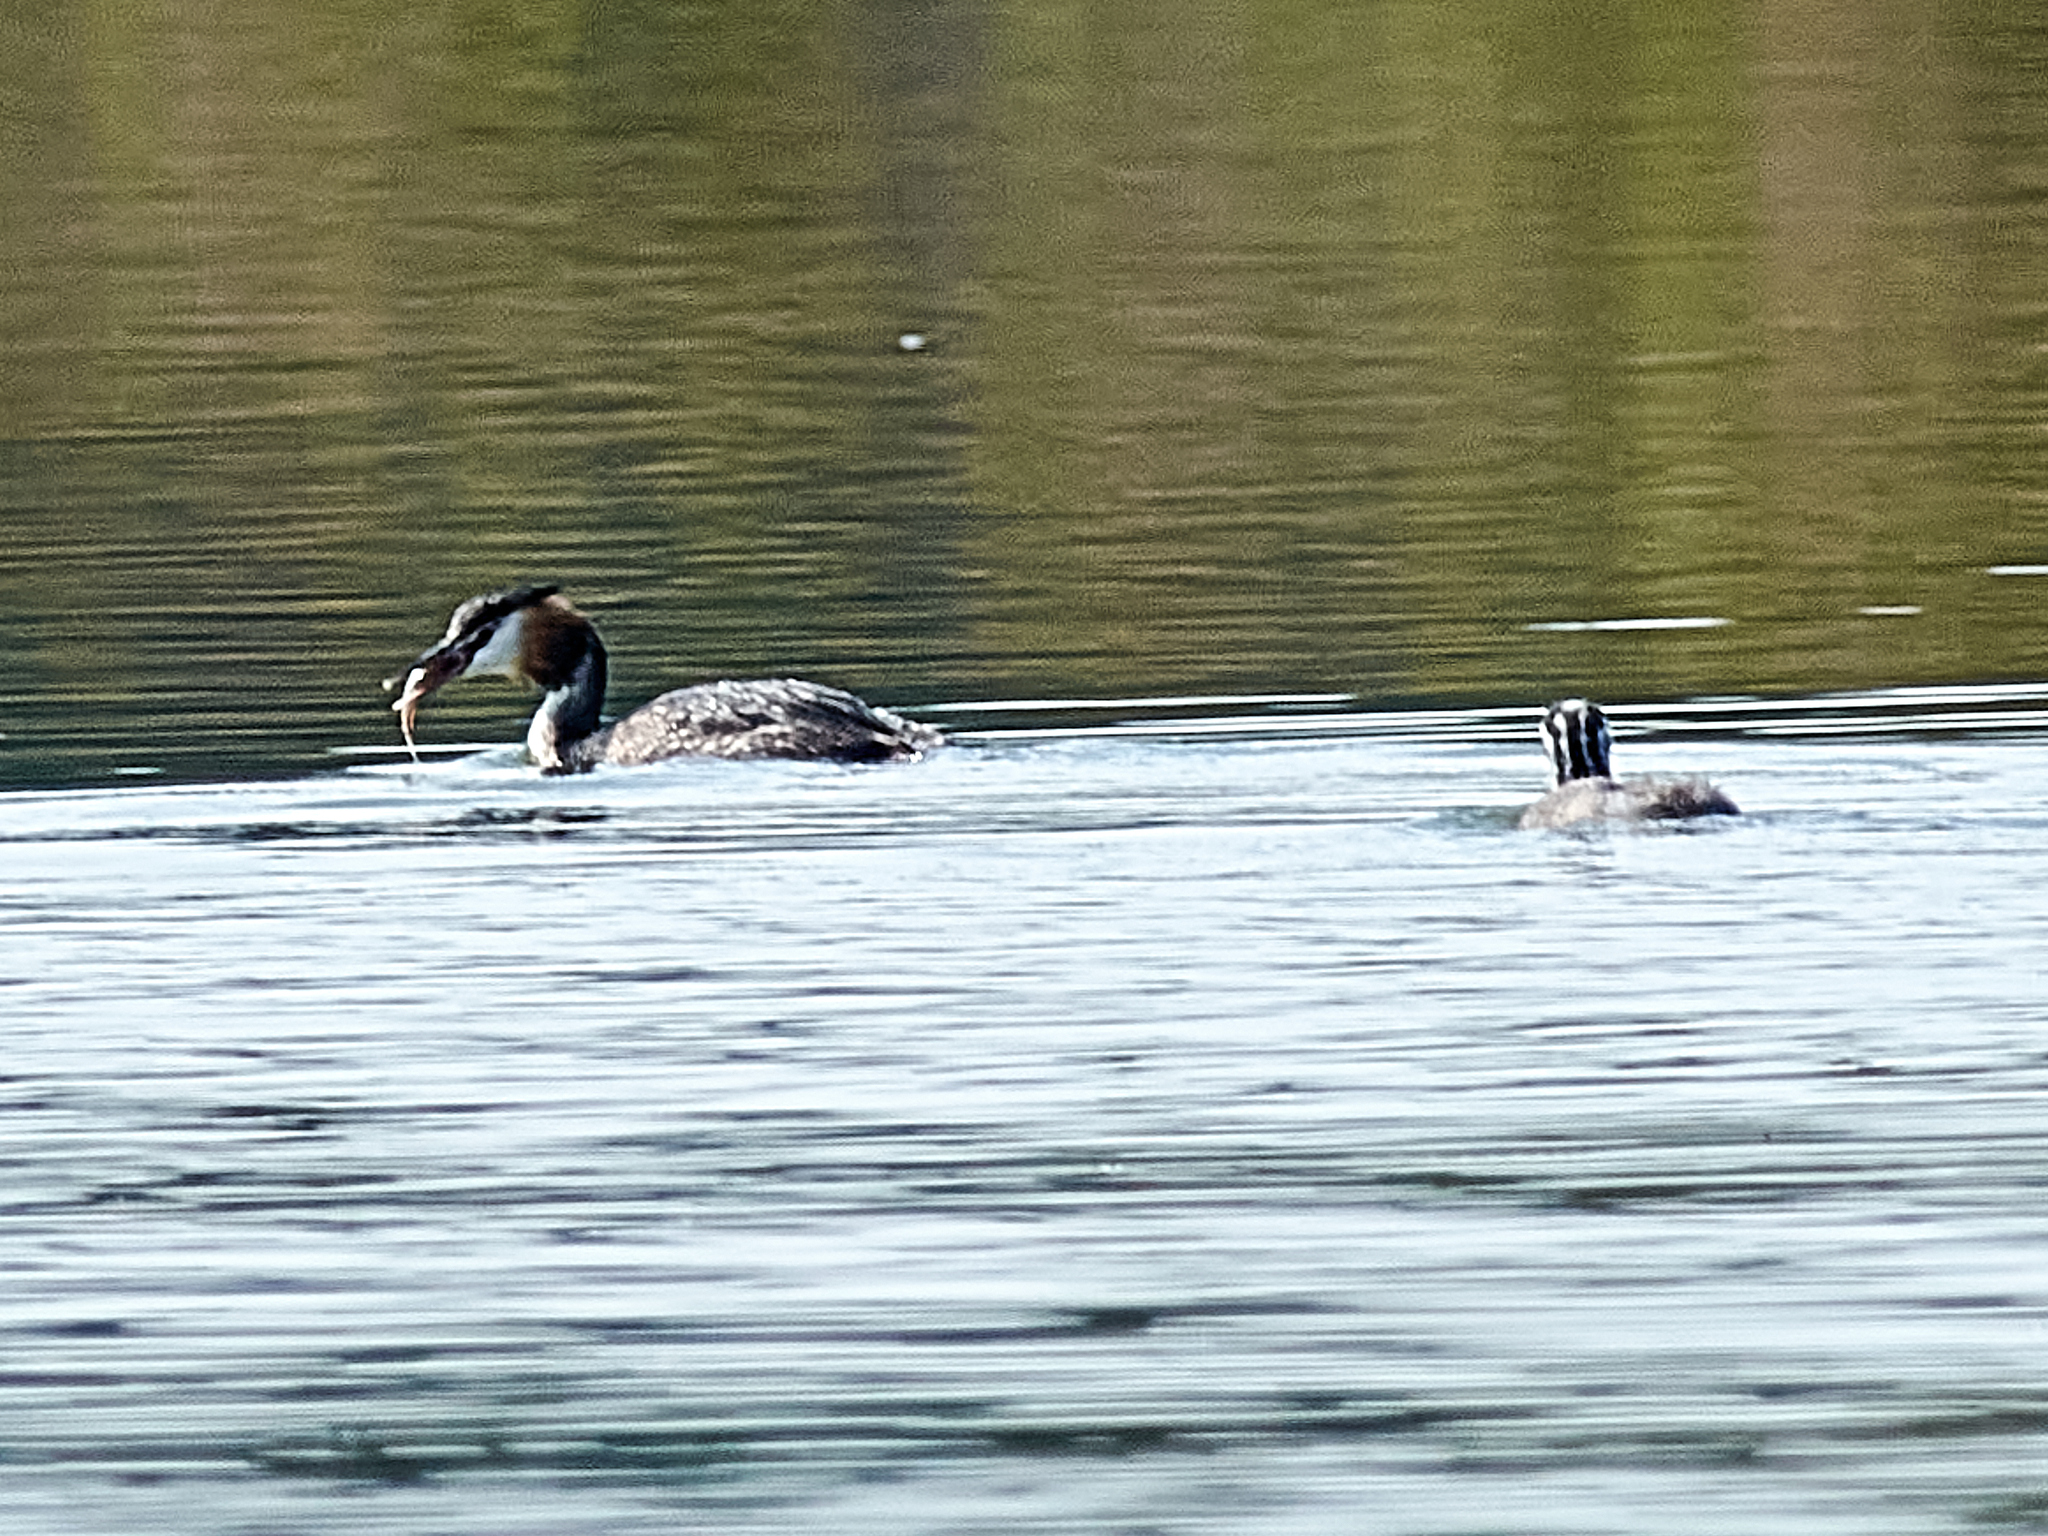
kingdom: Animalia
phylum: Chordata
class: Aves
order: Podicipediformes
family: Podicipedidae
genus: Podiceps
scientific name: Podiceps cristatus
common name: Great crested grebe
